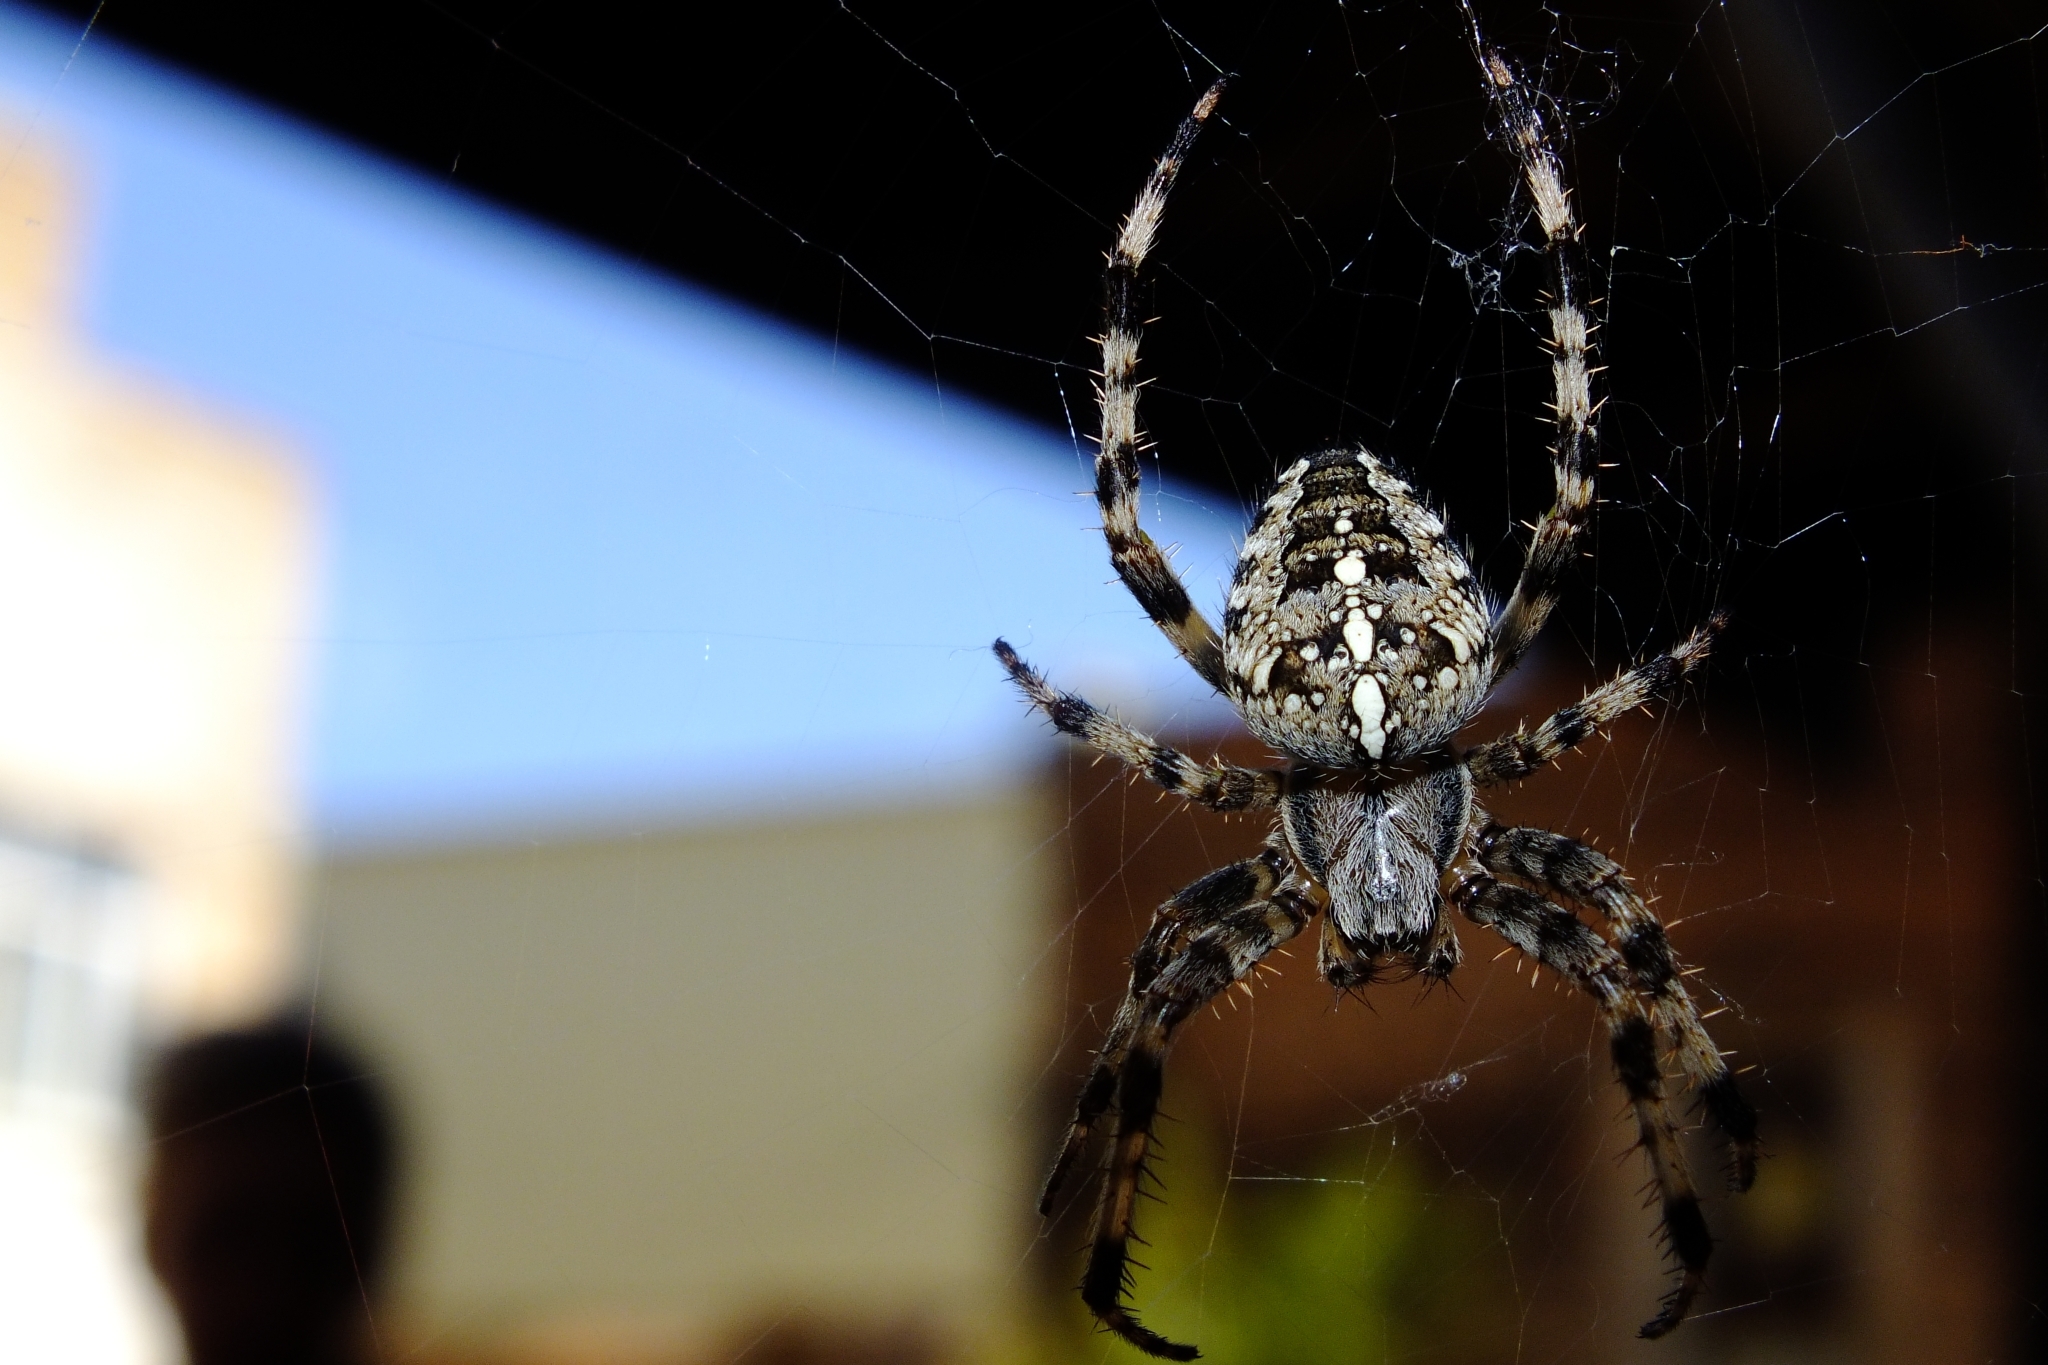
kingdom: Animalia
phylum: Arthropoda
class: Arachnida
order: Araneae
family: Araneidae
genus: Araneus
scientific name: Araneus diadematus
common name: Cross orbweaver
